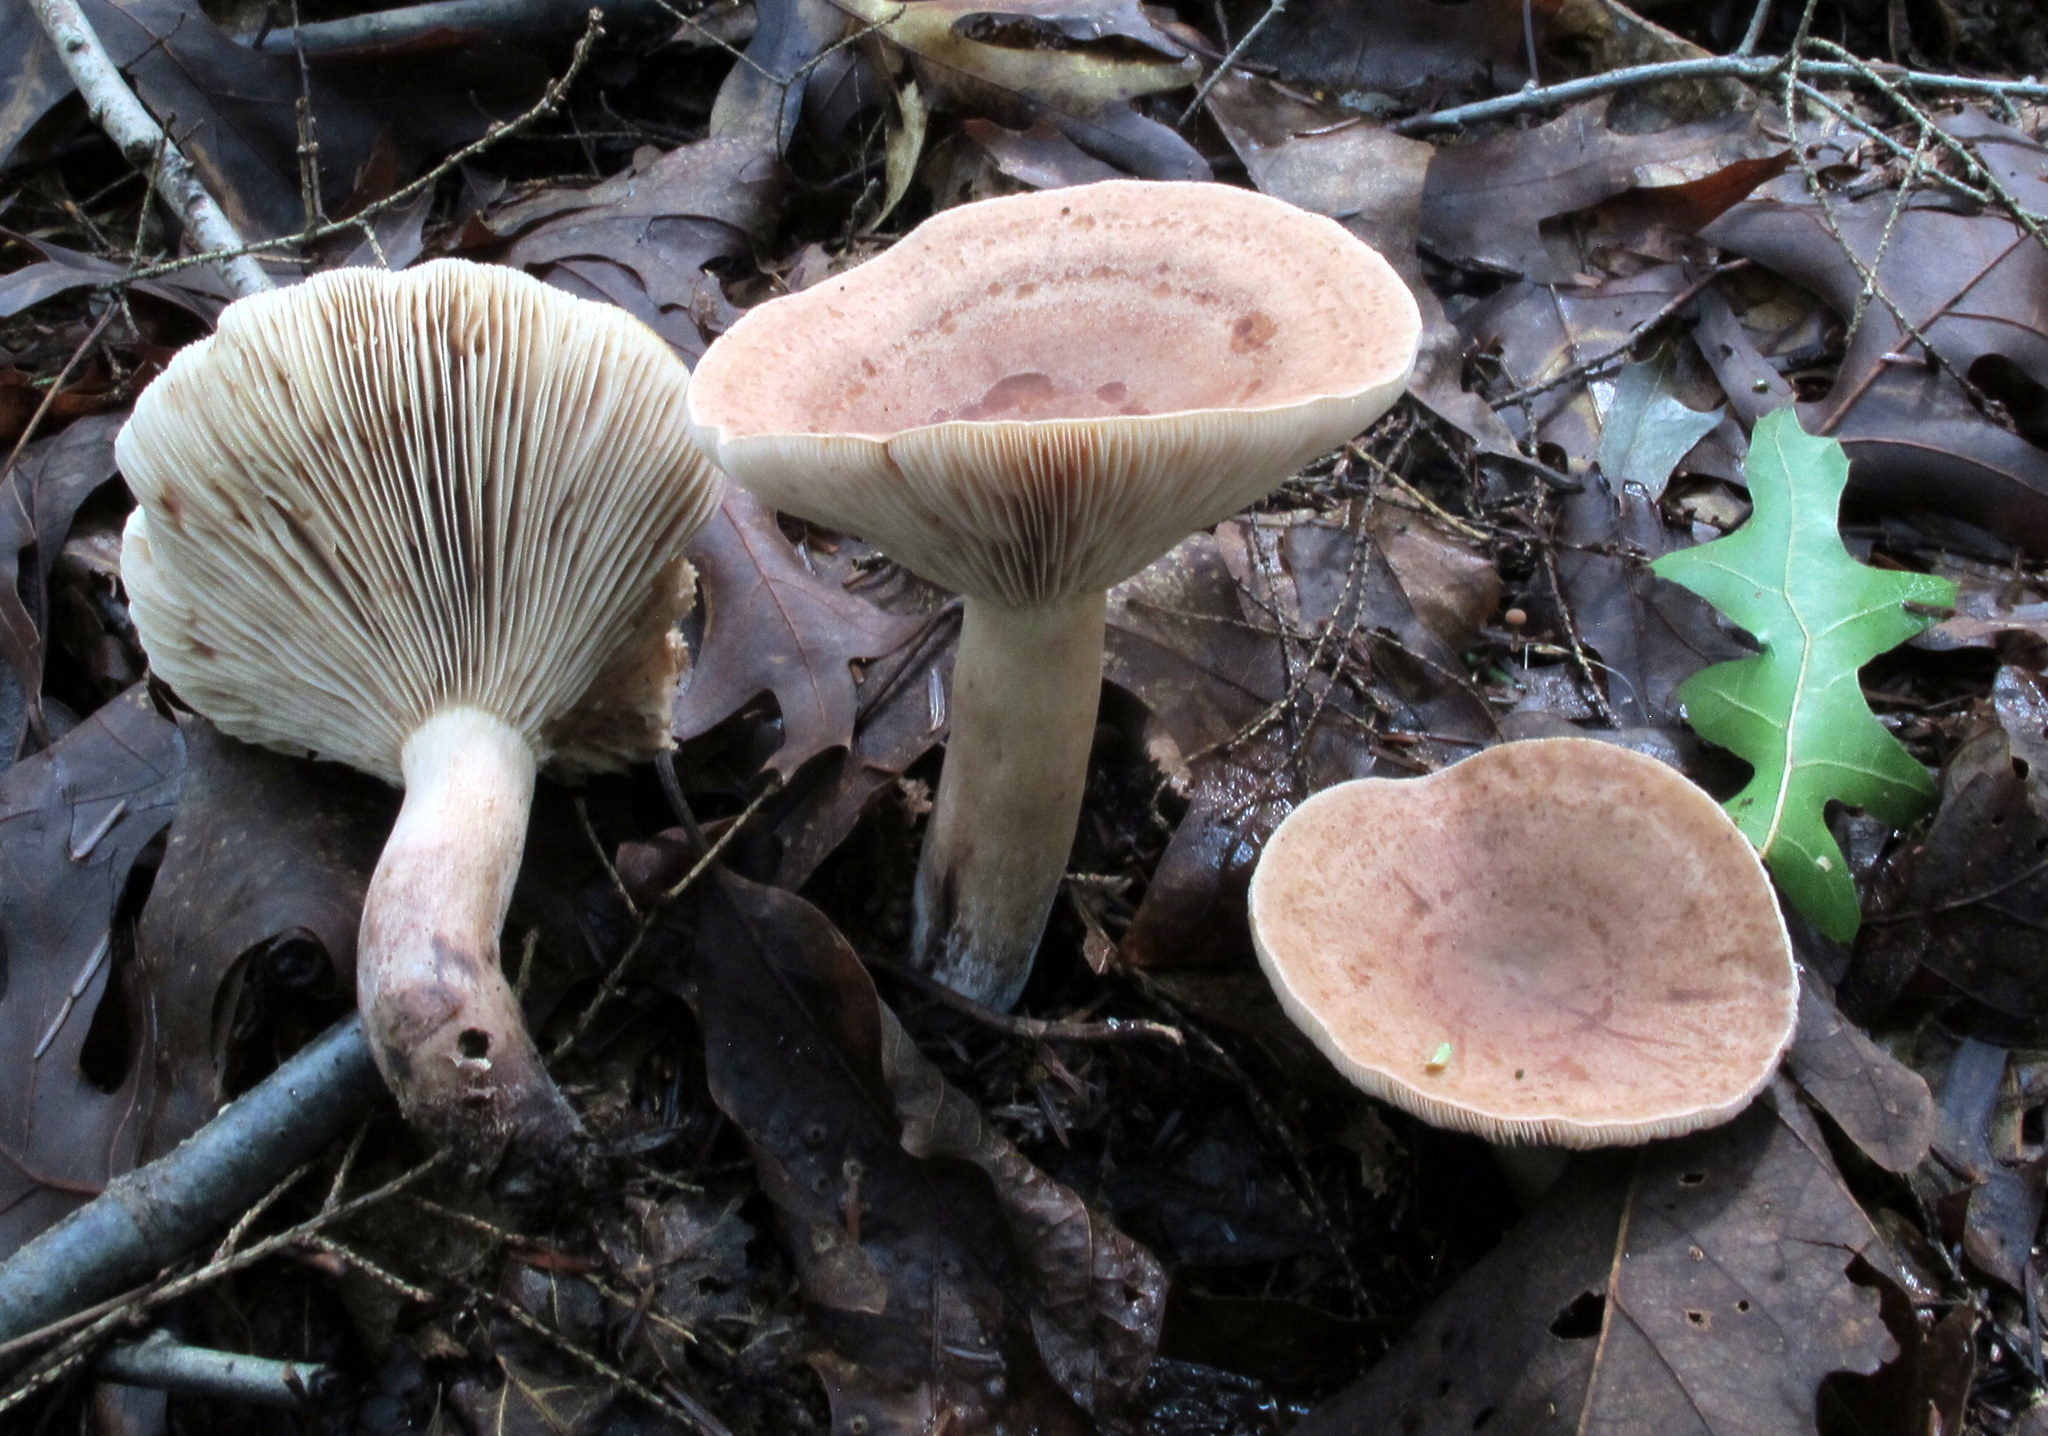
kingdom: Fungi
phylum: Basidiomycota
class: Agaricomycetes
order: Russulales
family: Russulaceae
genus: Lactarius
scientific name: Lactarius quietus
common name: Oak milk-cap
